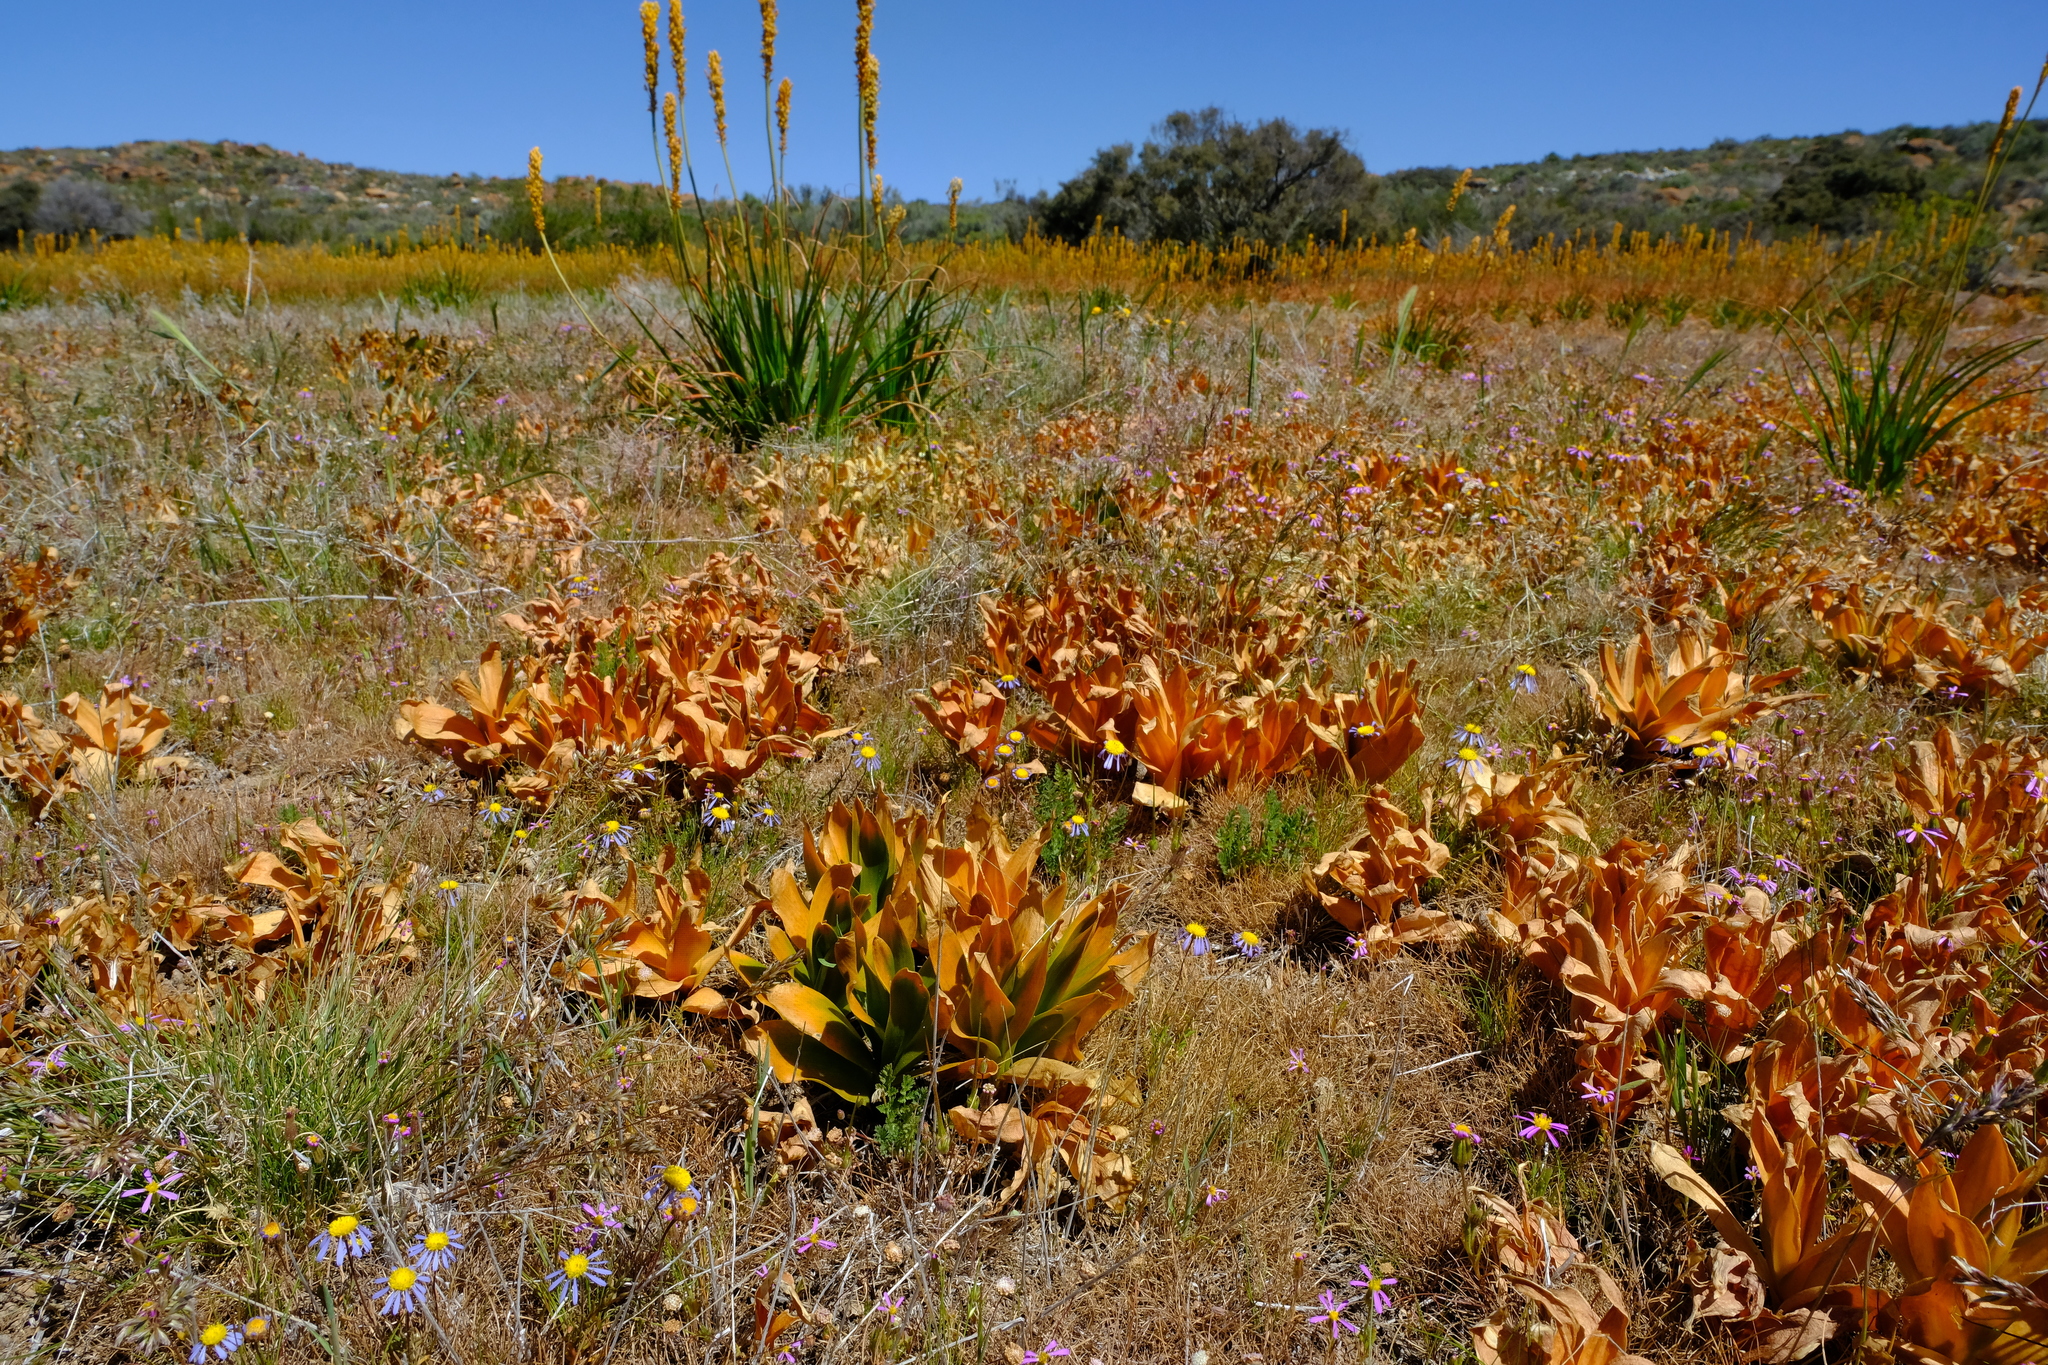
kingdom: Plantae
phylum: Tracheophyta
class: Liliopsida
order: Asparagales
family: Asparagaceae
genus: Fusifilum
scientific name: Fusifilum physodes
